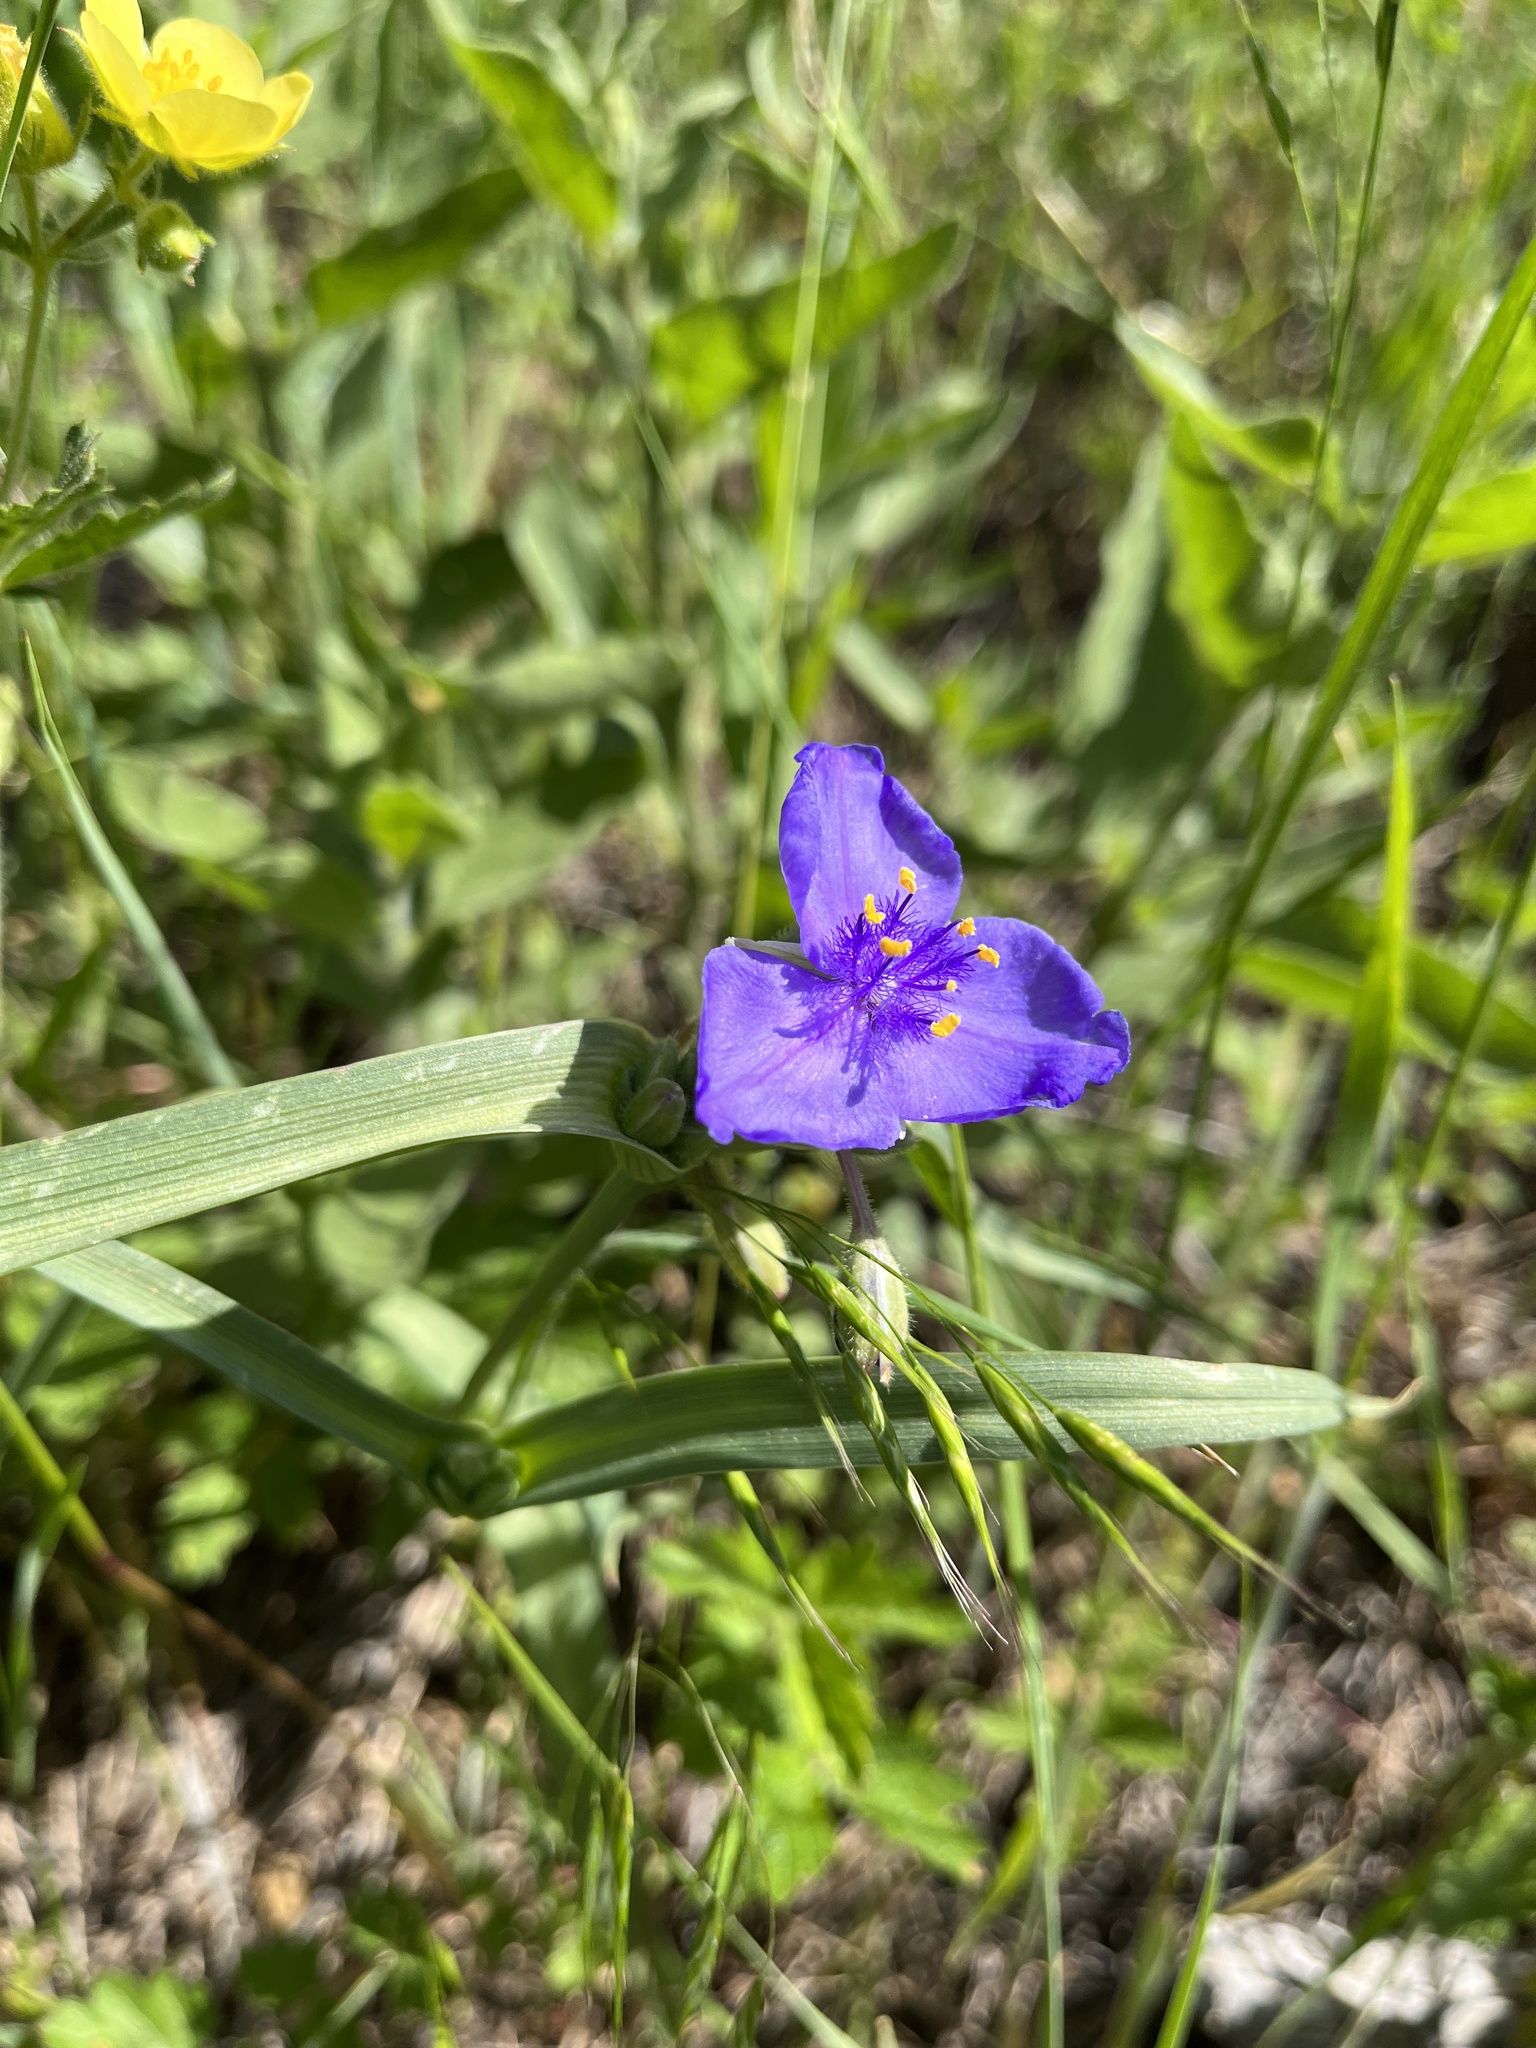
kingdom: Plantae
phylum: Tracheophyta
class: Liliopsida
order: Commelinales
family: Commelinaceae
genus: Tradescantia
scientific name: Tradescantia occidentalis
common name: Prairie spiderwort
